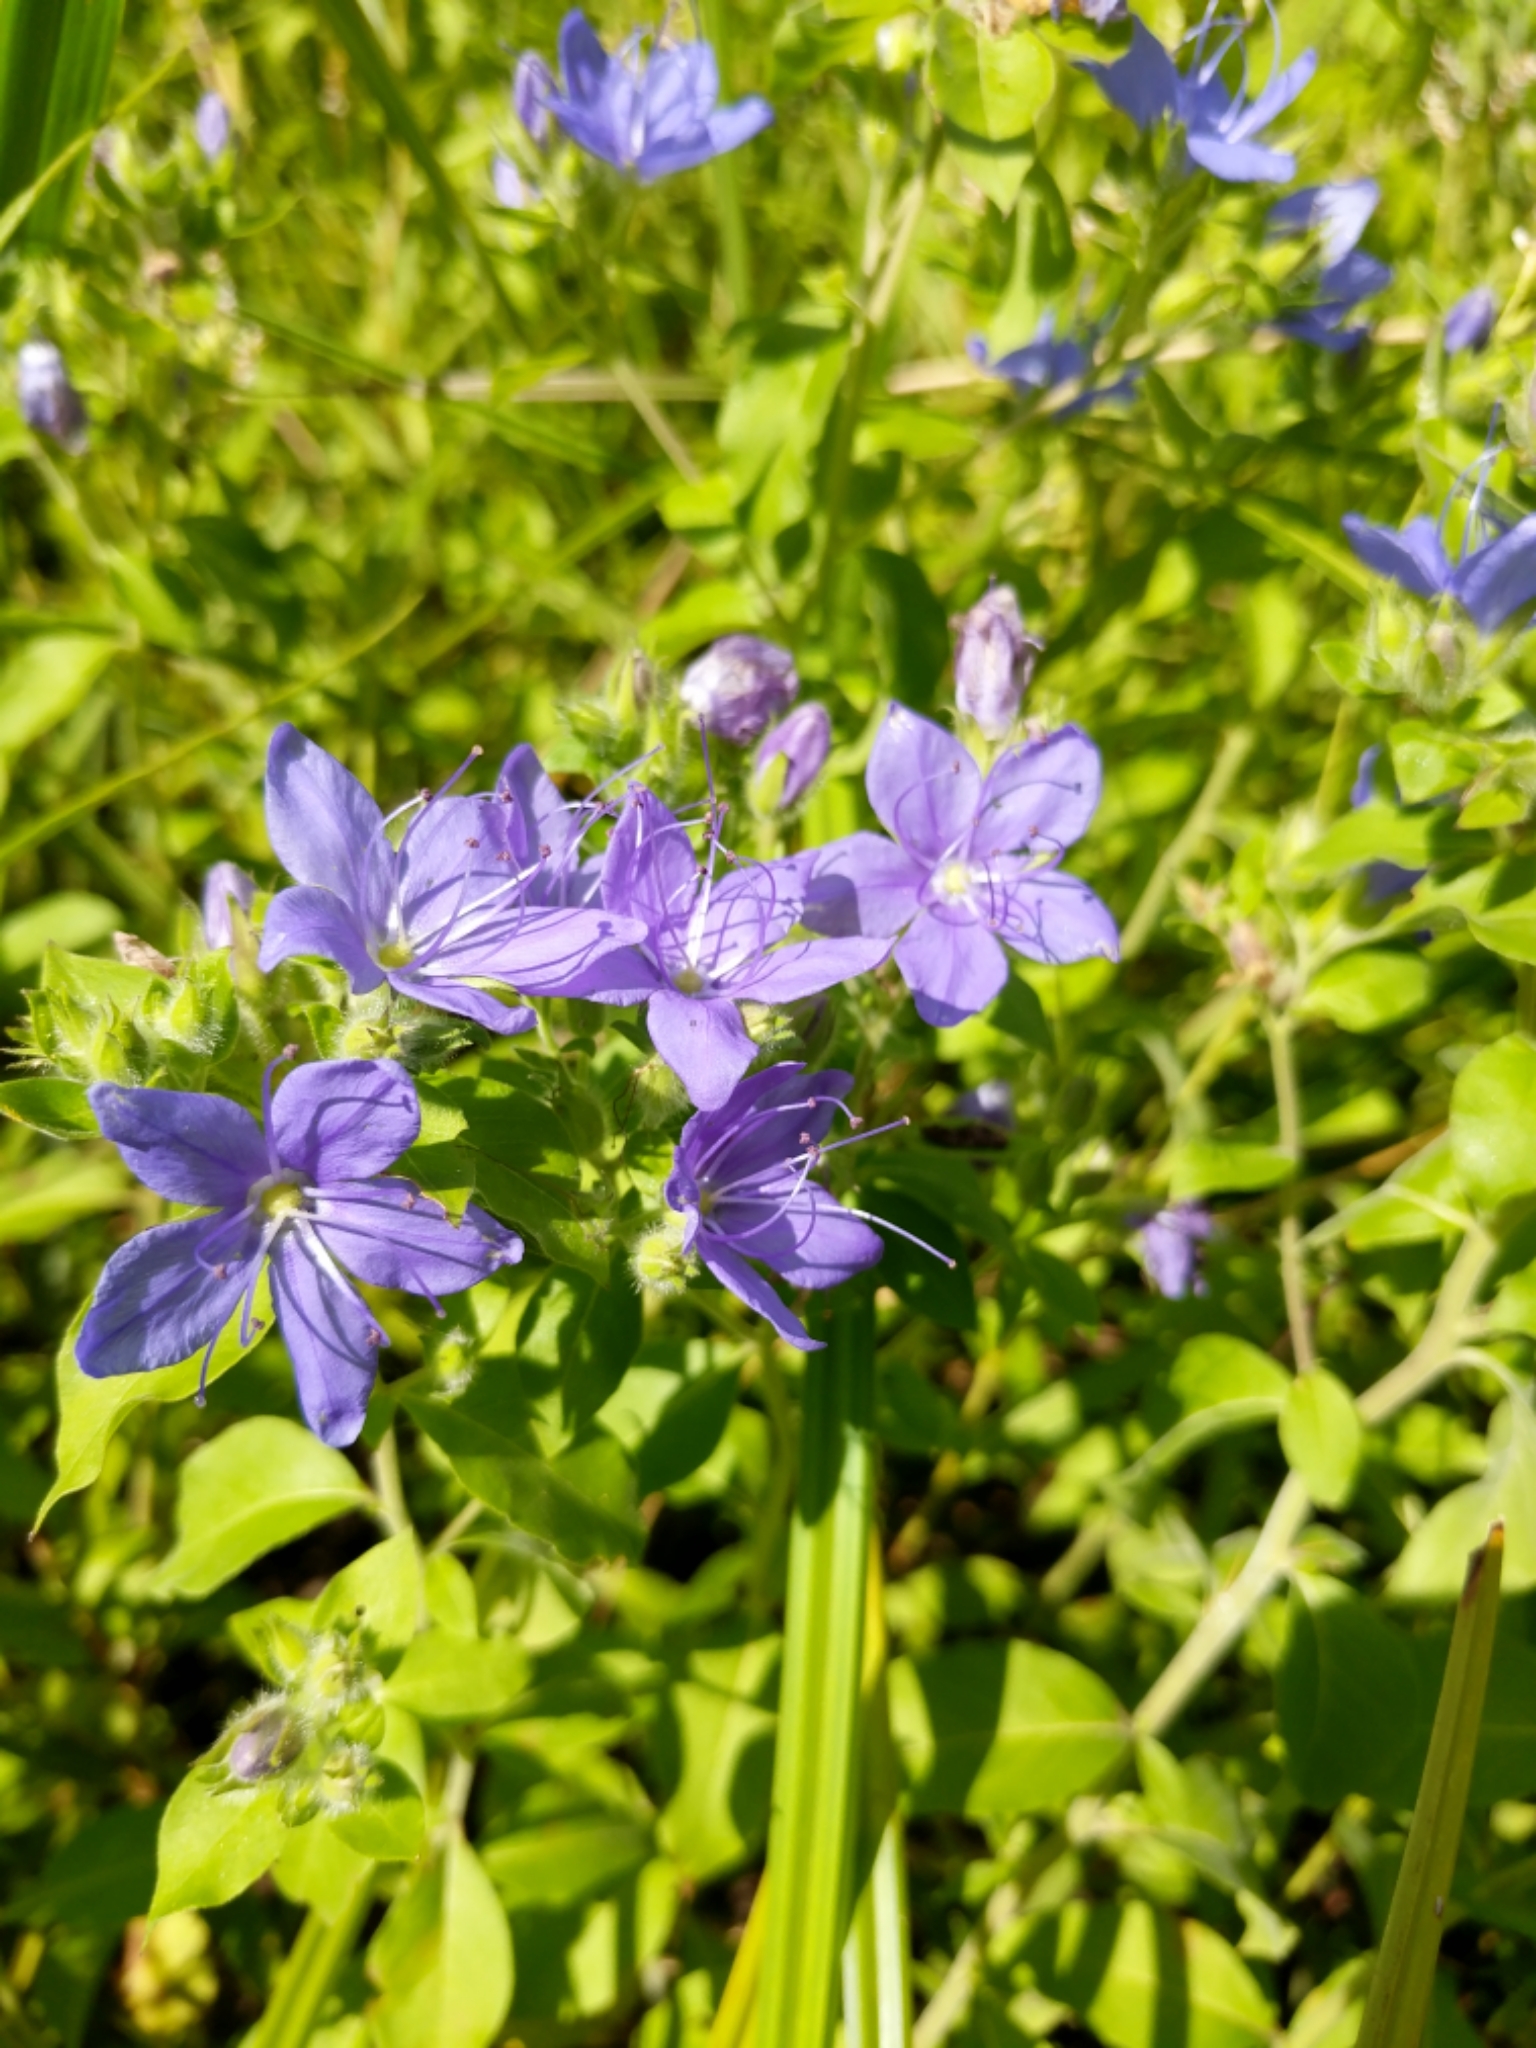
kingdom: Plantae
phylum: Tracheophyta
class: Magnoliopsida
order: Solanales
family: Hydroleaceae
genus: Hydrolea
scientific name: Hydrolea ovata
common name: Ovate false fiddleleaf
